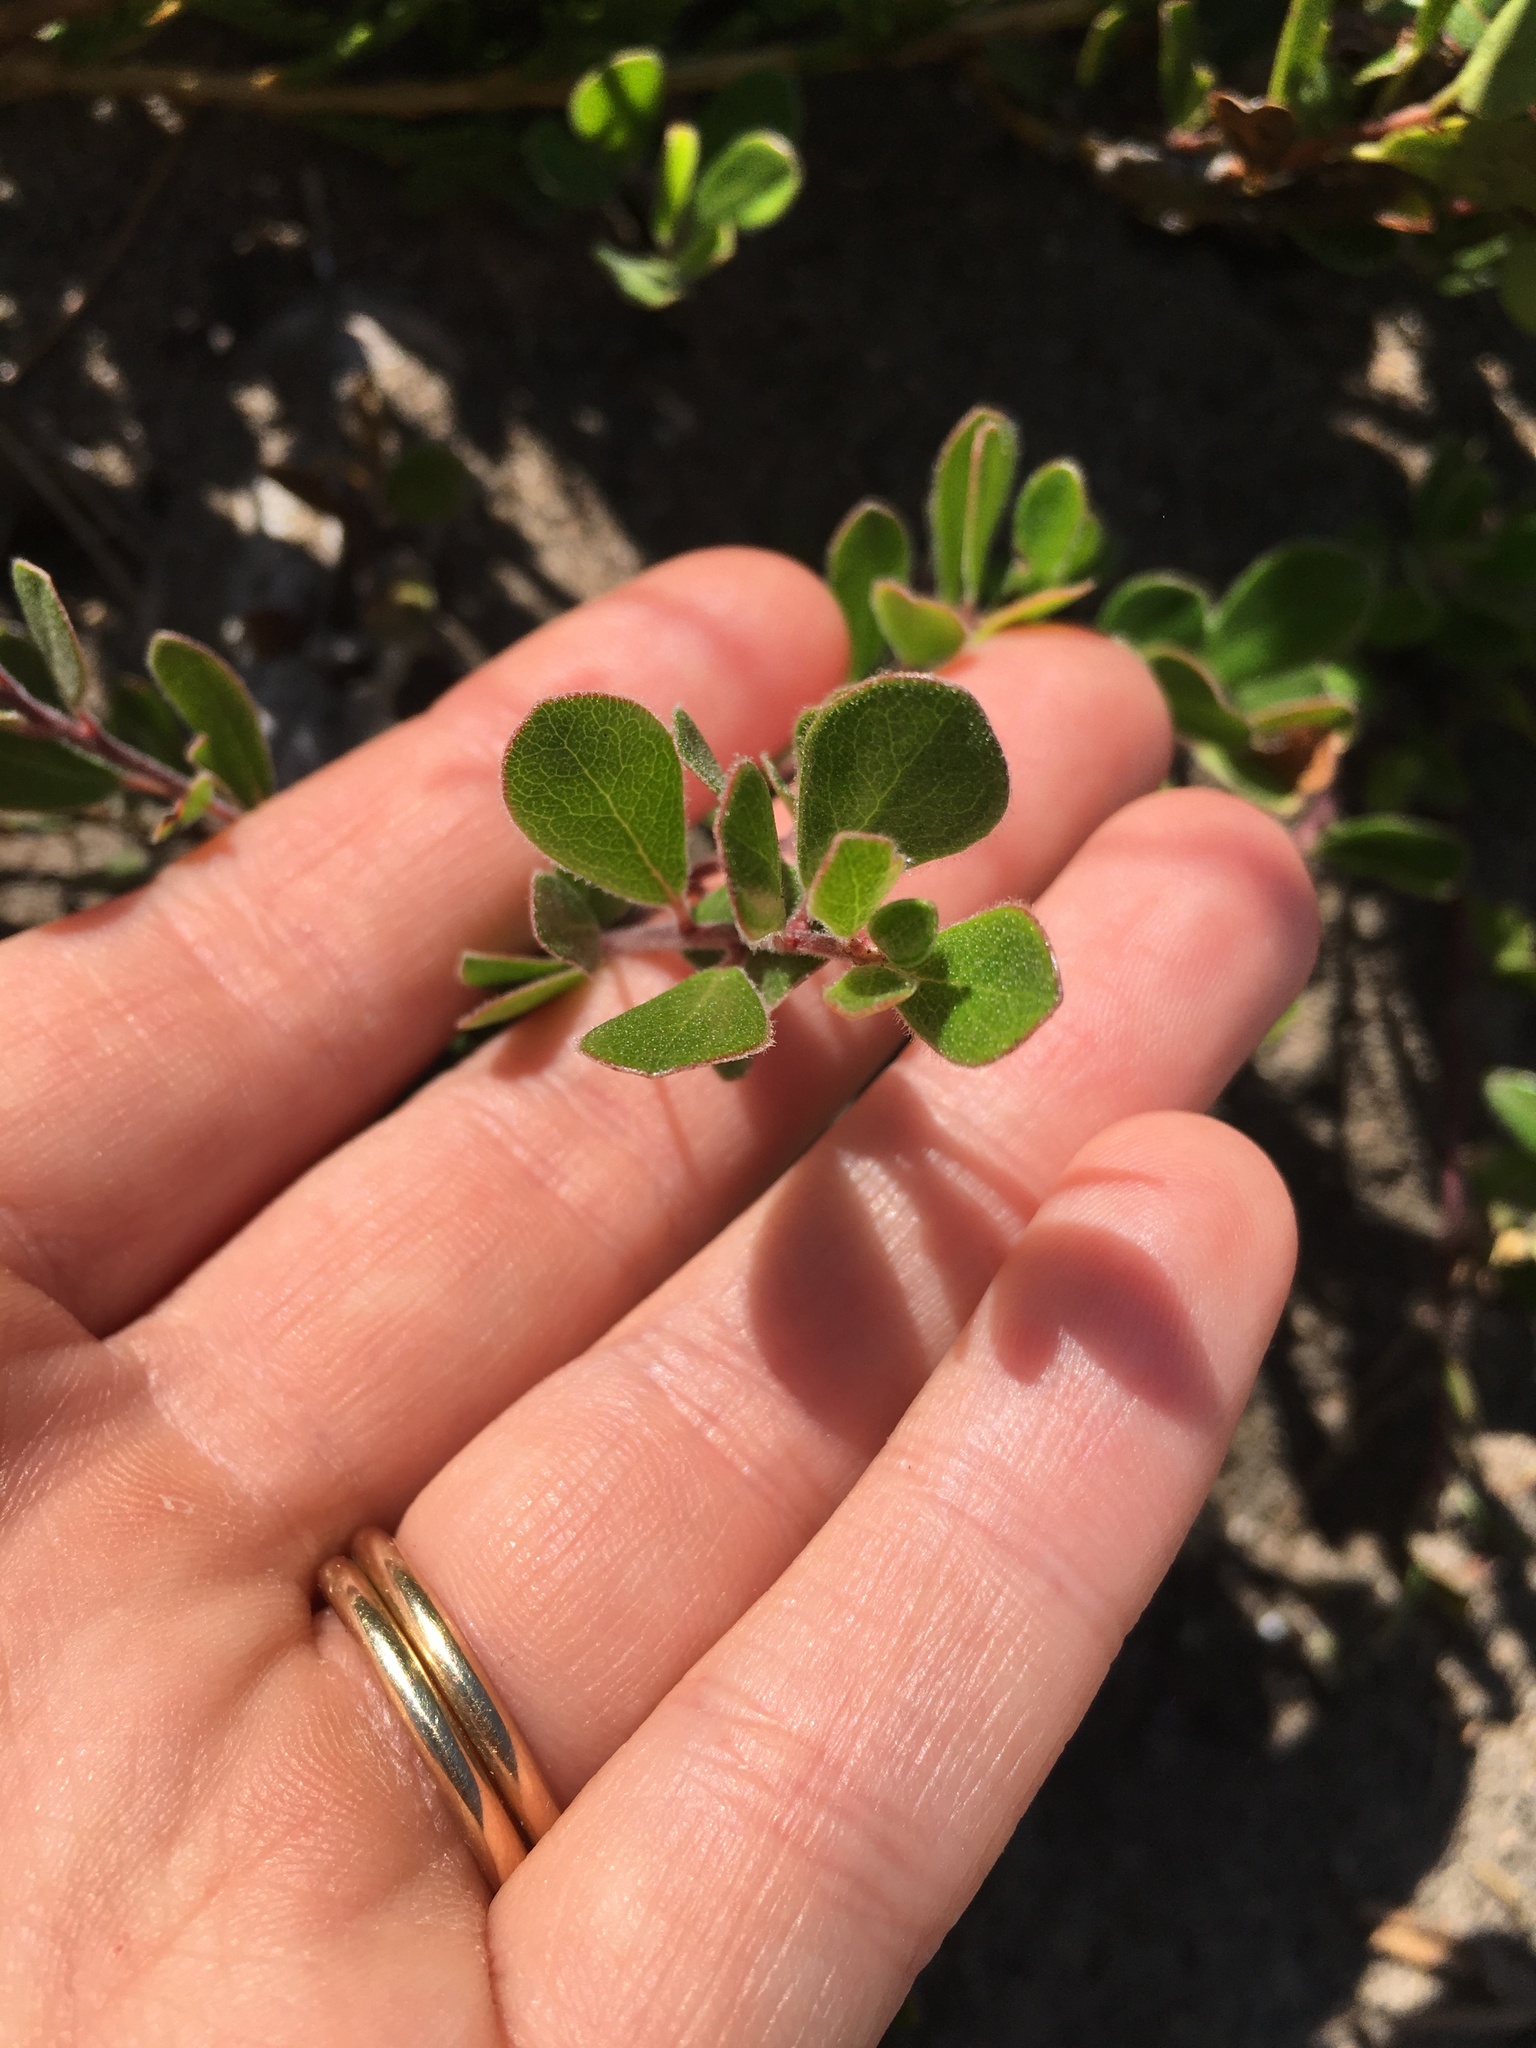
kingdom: Plantae
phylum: Tracheophyta
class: Magnoliopsida
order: Ericales
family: Ericaceae
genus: Arctostaphylos
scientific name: Arctostaphylos uva-ursi
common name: Bearberry
